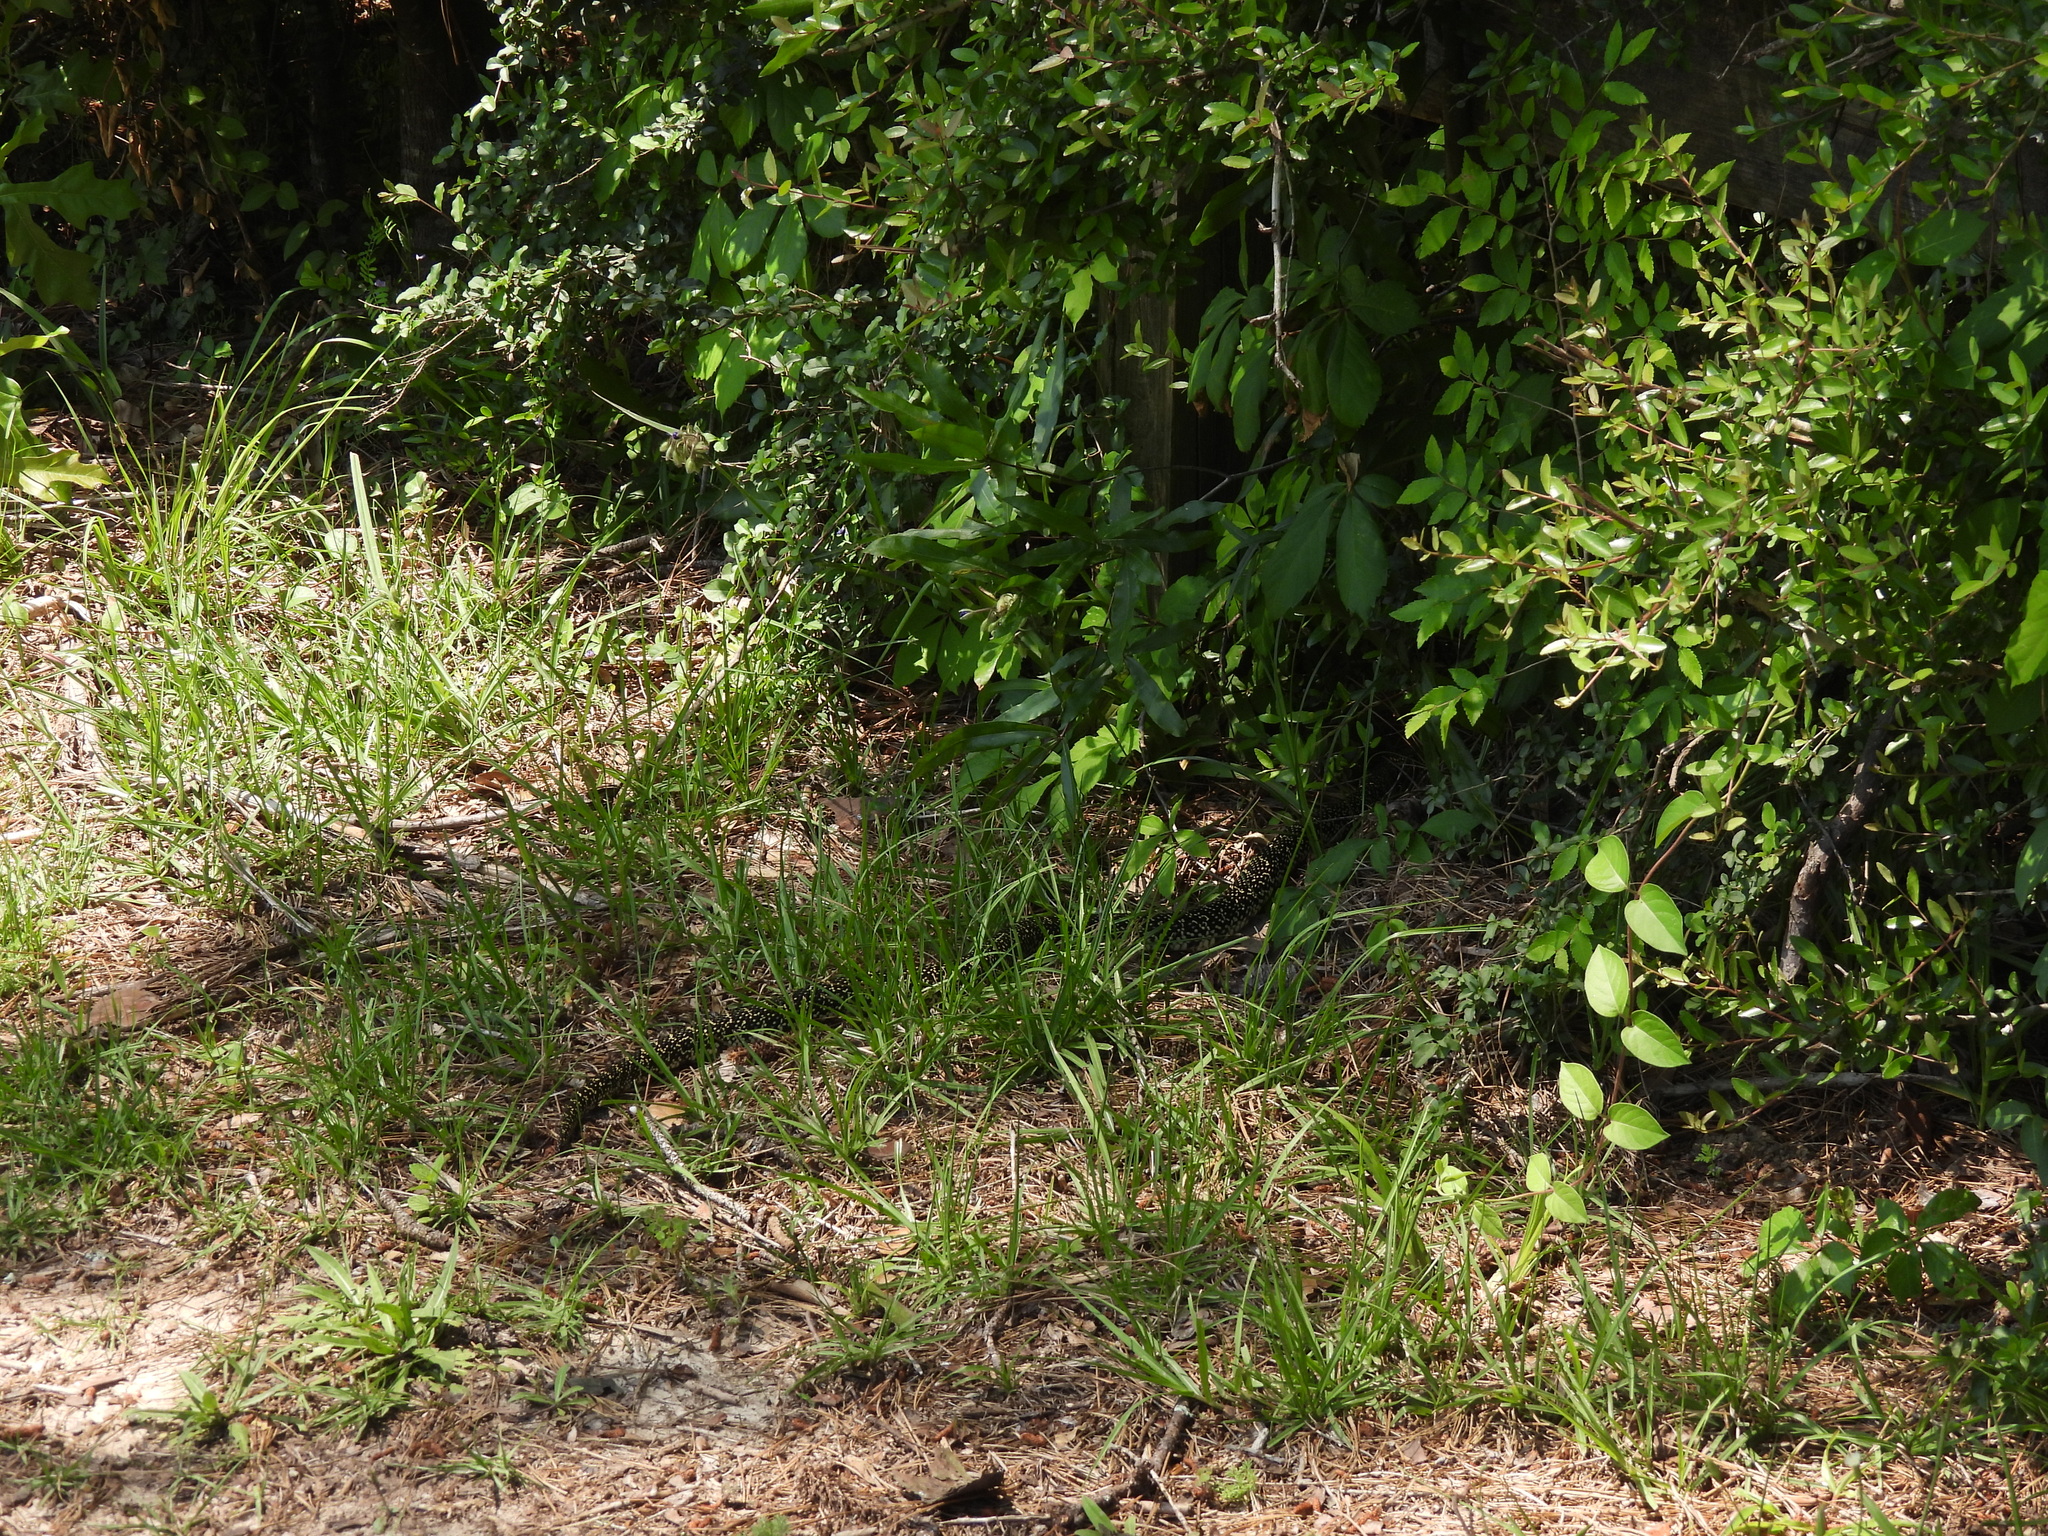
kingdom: Animalia
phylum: Chordata
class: Squamata
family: Colubridae
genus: Lampropeltis
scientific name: Lampropeltis holbrooki
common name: Speckled kingsnake
